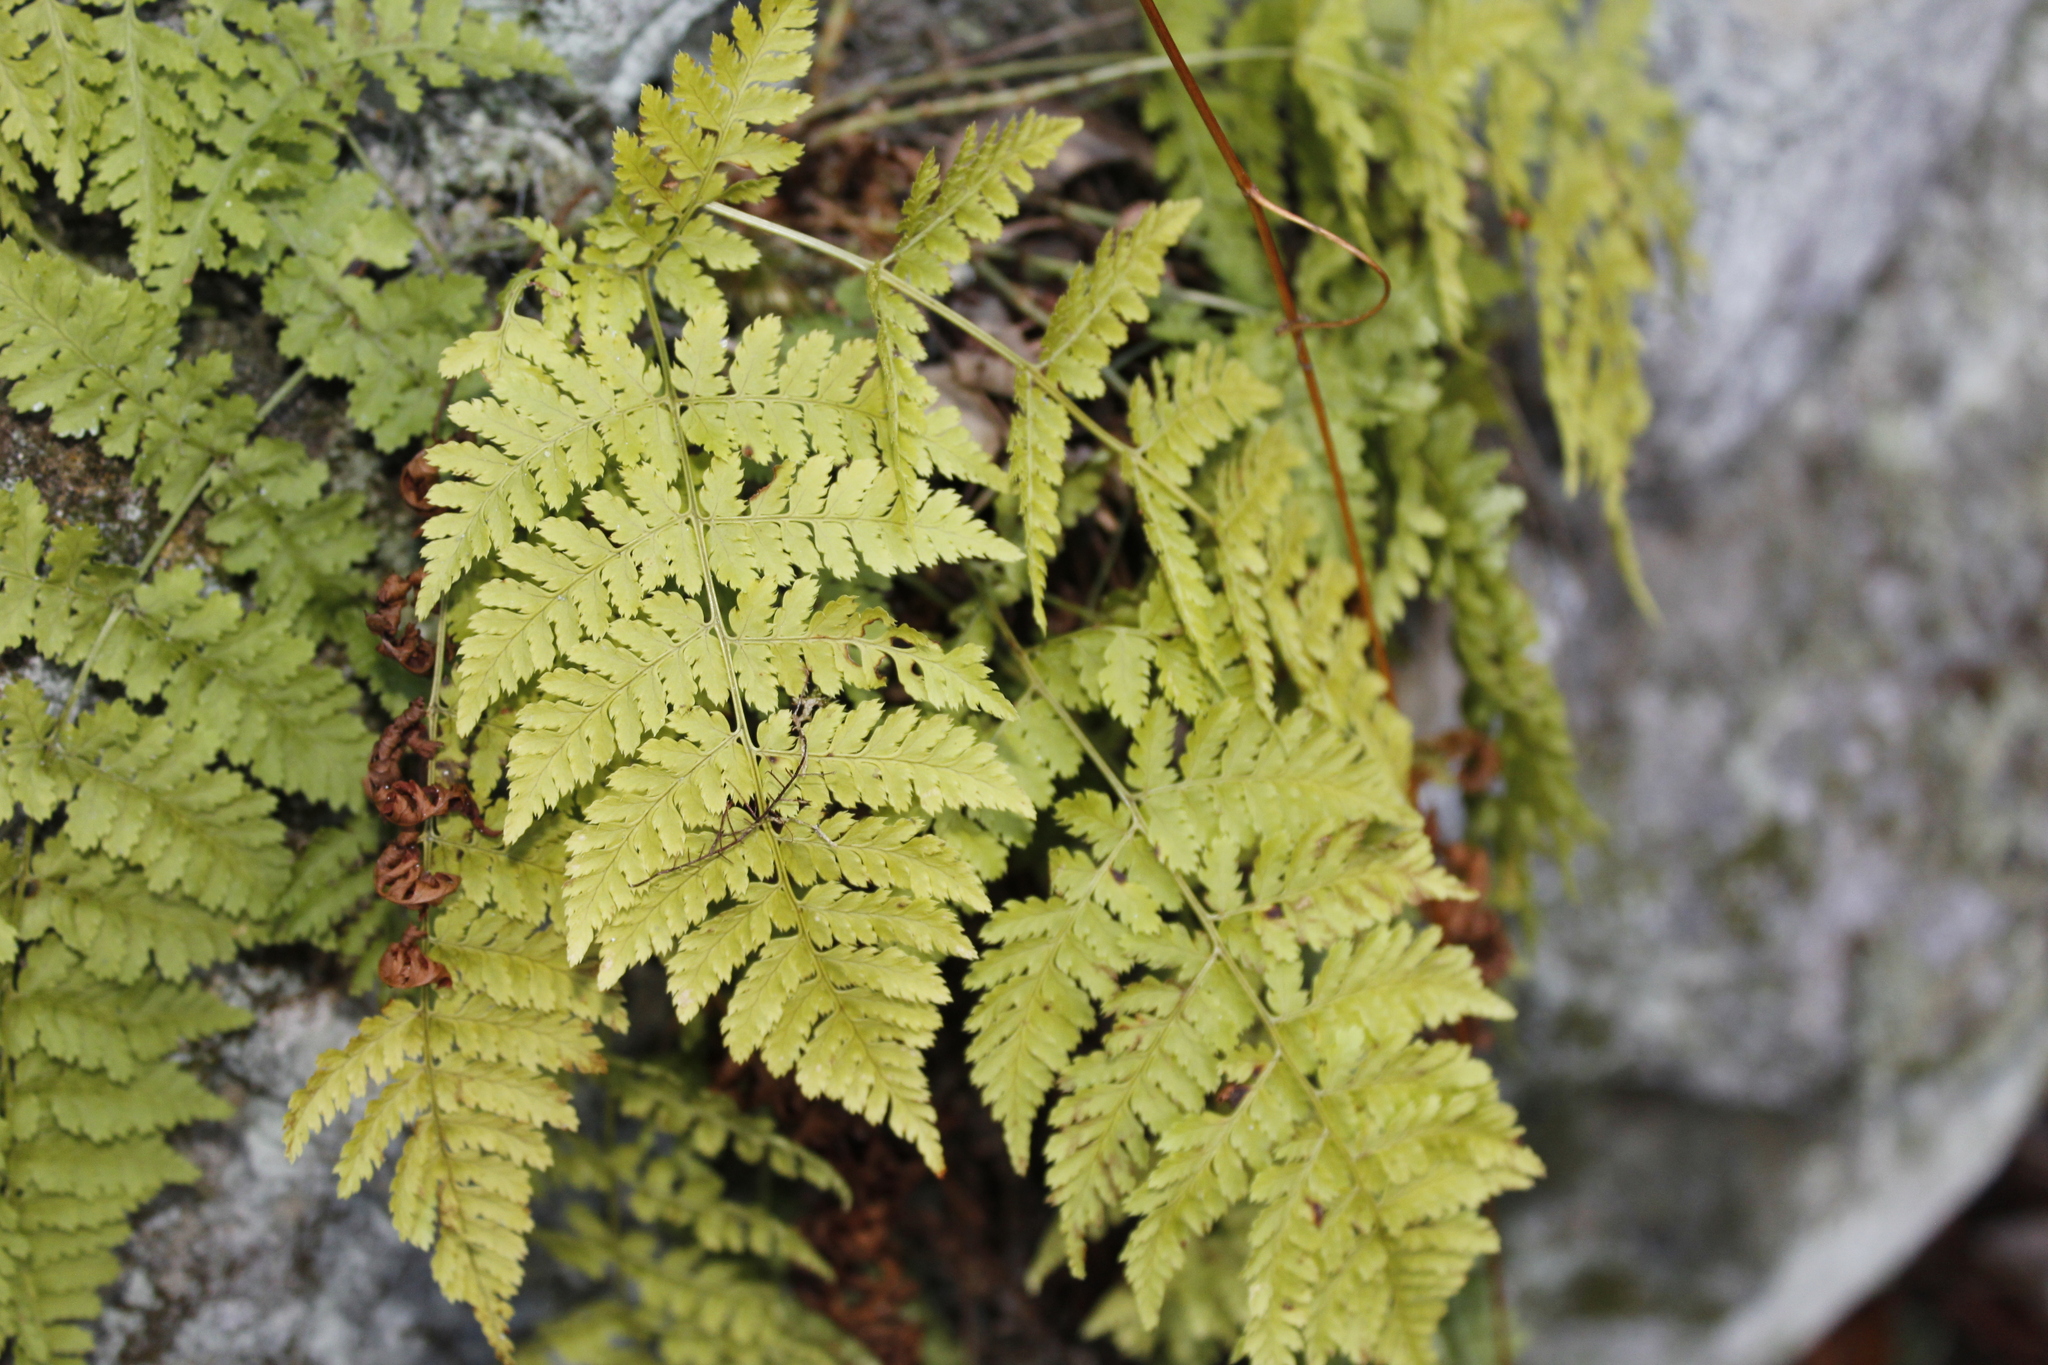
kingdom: Plantae
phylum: Tracheophyta
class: Polypodiopsida
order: Polypodiales
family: Dryopteridaceae
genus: Dryopteris
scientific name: Dryopteris intermedia
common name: Evergreen wood fern
